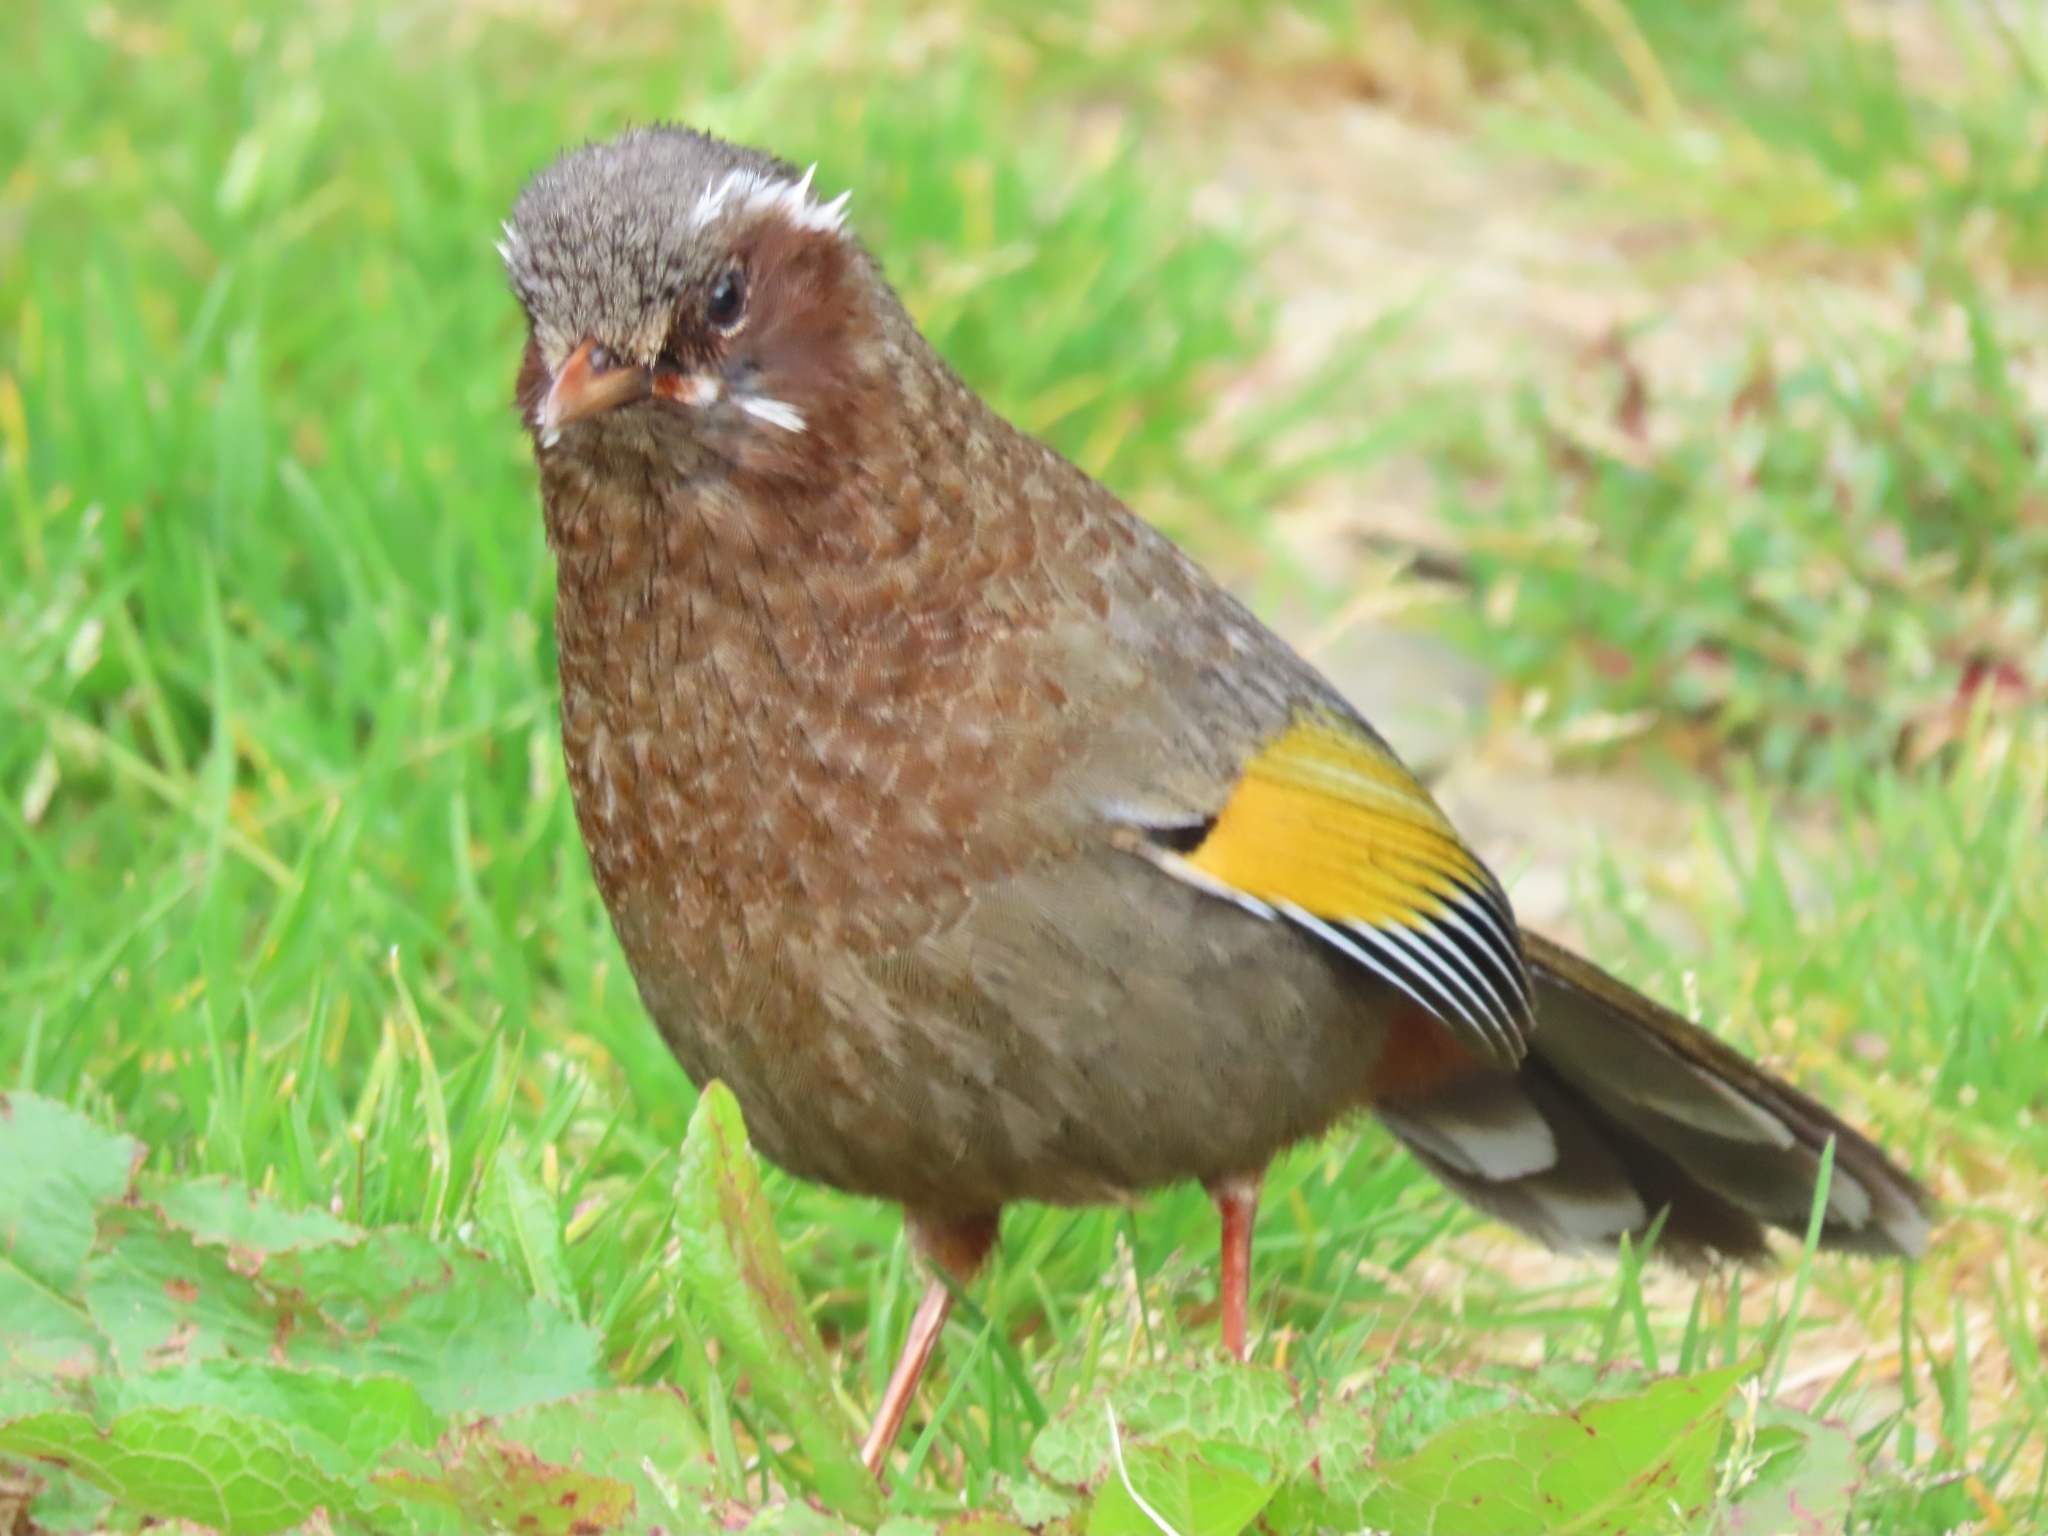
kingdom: Animalia
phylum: Chordata
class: Aves
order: Passeriformes
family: Leiothrichidae
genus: Trochalopteron
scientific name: Trochalopteron morrisonianum
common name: White-whiskered laughingthrush
